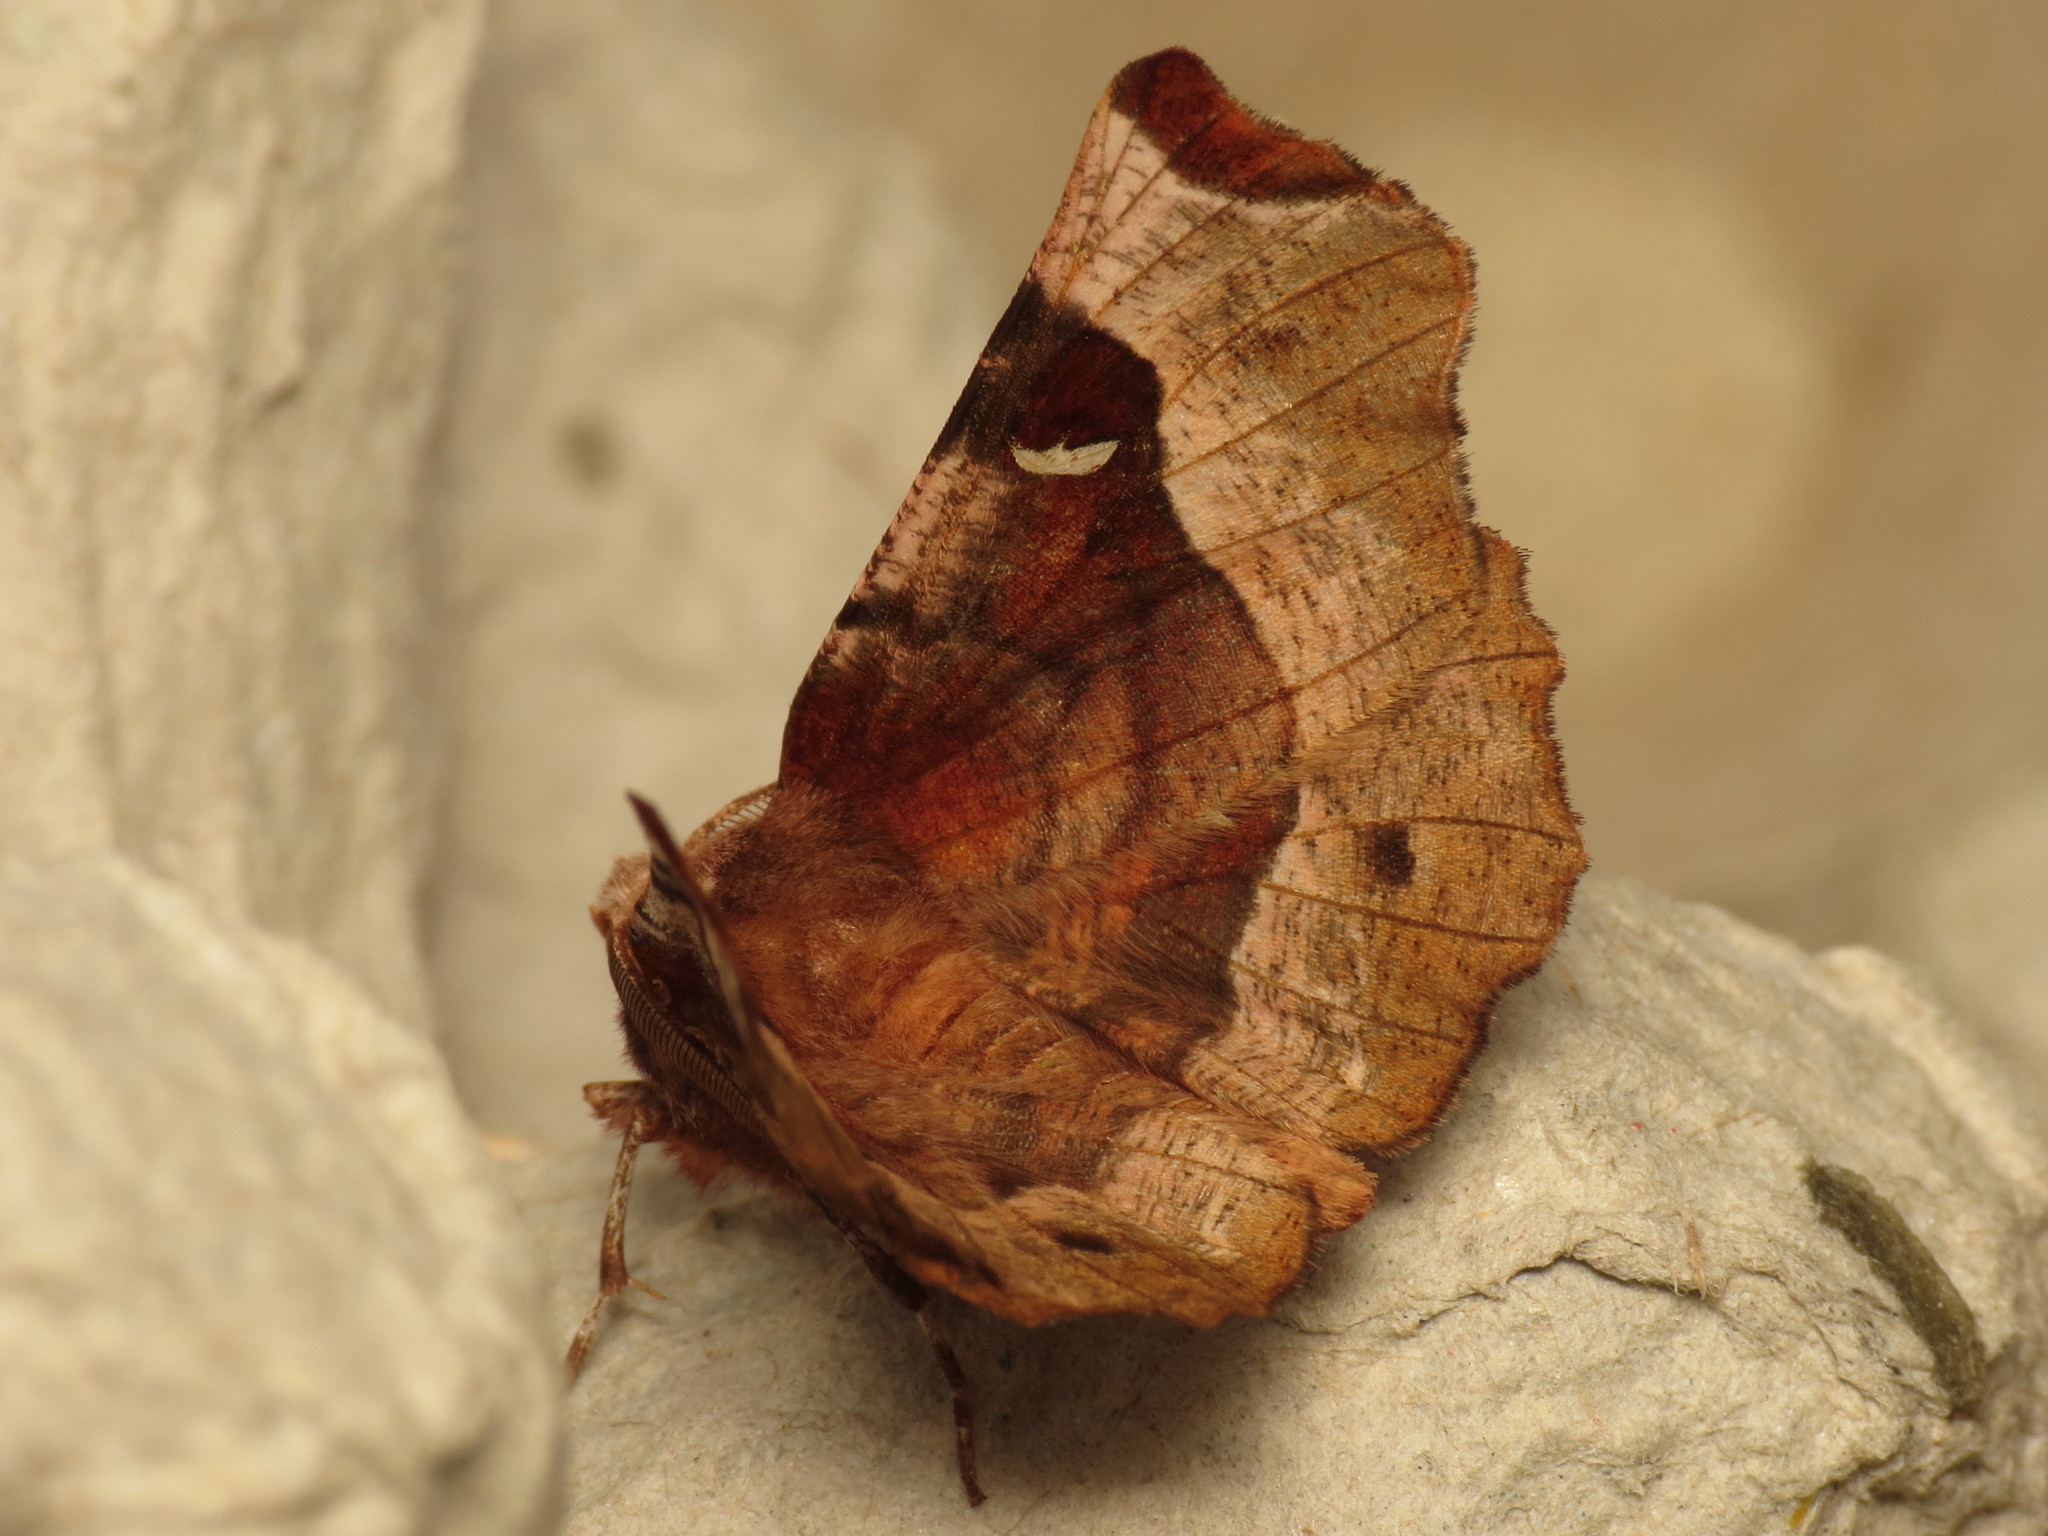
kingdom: Animalia
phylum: Arthropoda
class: Insecta
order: Lepidoptera
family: Geometridae
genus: Selenia
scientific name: Selenia tetralunaria
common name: Purple thorn
